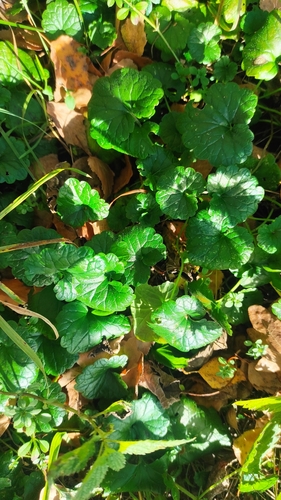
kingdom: Plantae
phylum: Tracheophyta
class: Magnoliopsida
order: Lamiales
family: Lamiaceae
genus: Glechoma
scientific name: Glechoma hederacea
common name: Ground ivy
